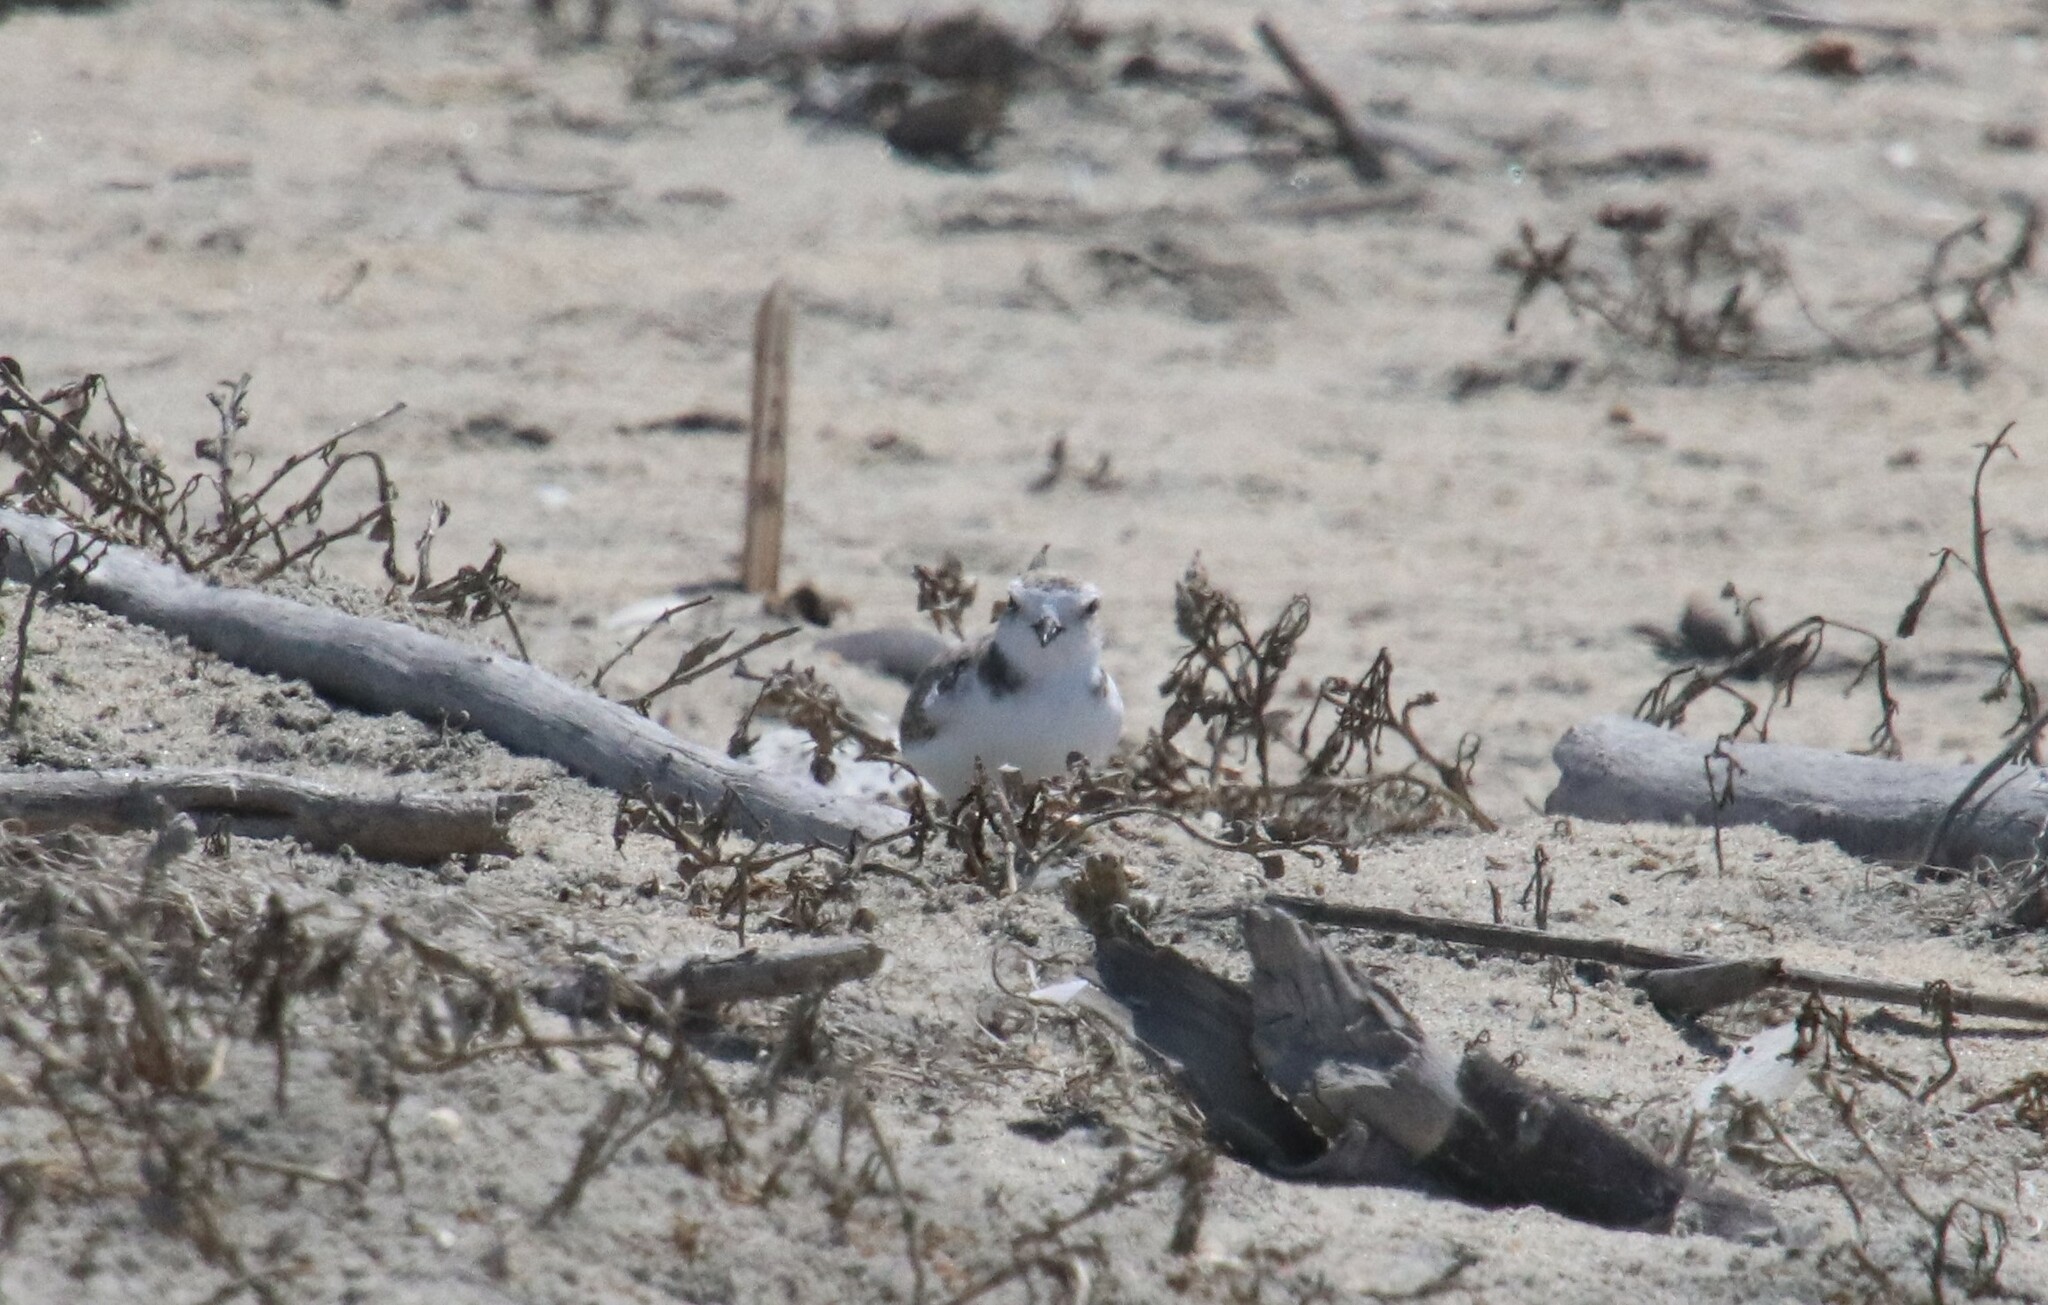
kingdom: Animalia
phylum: Chordata
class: Aves
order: Charadriiformes
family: Charadriidae
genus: Anarhynchus
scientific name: Anarhynchus
